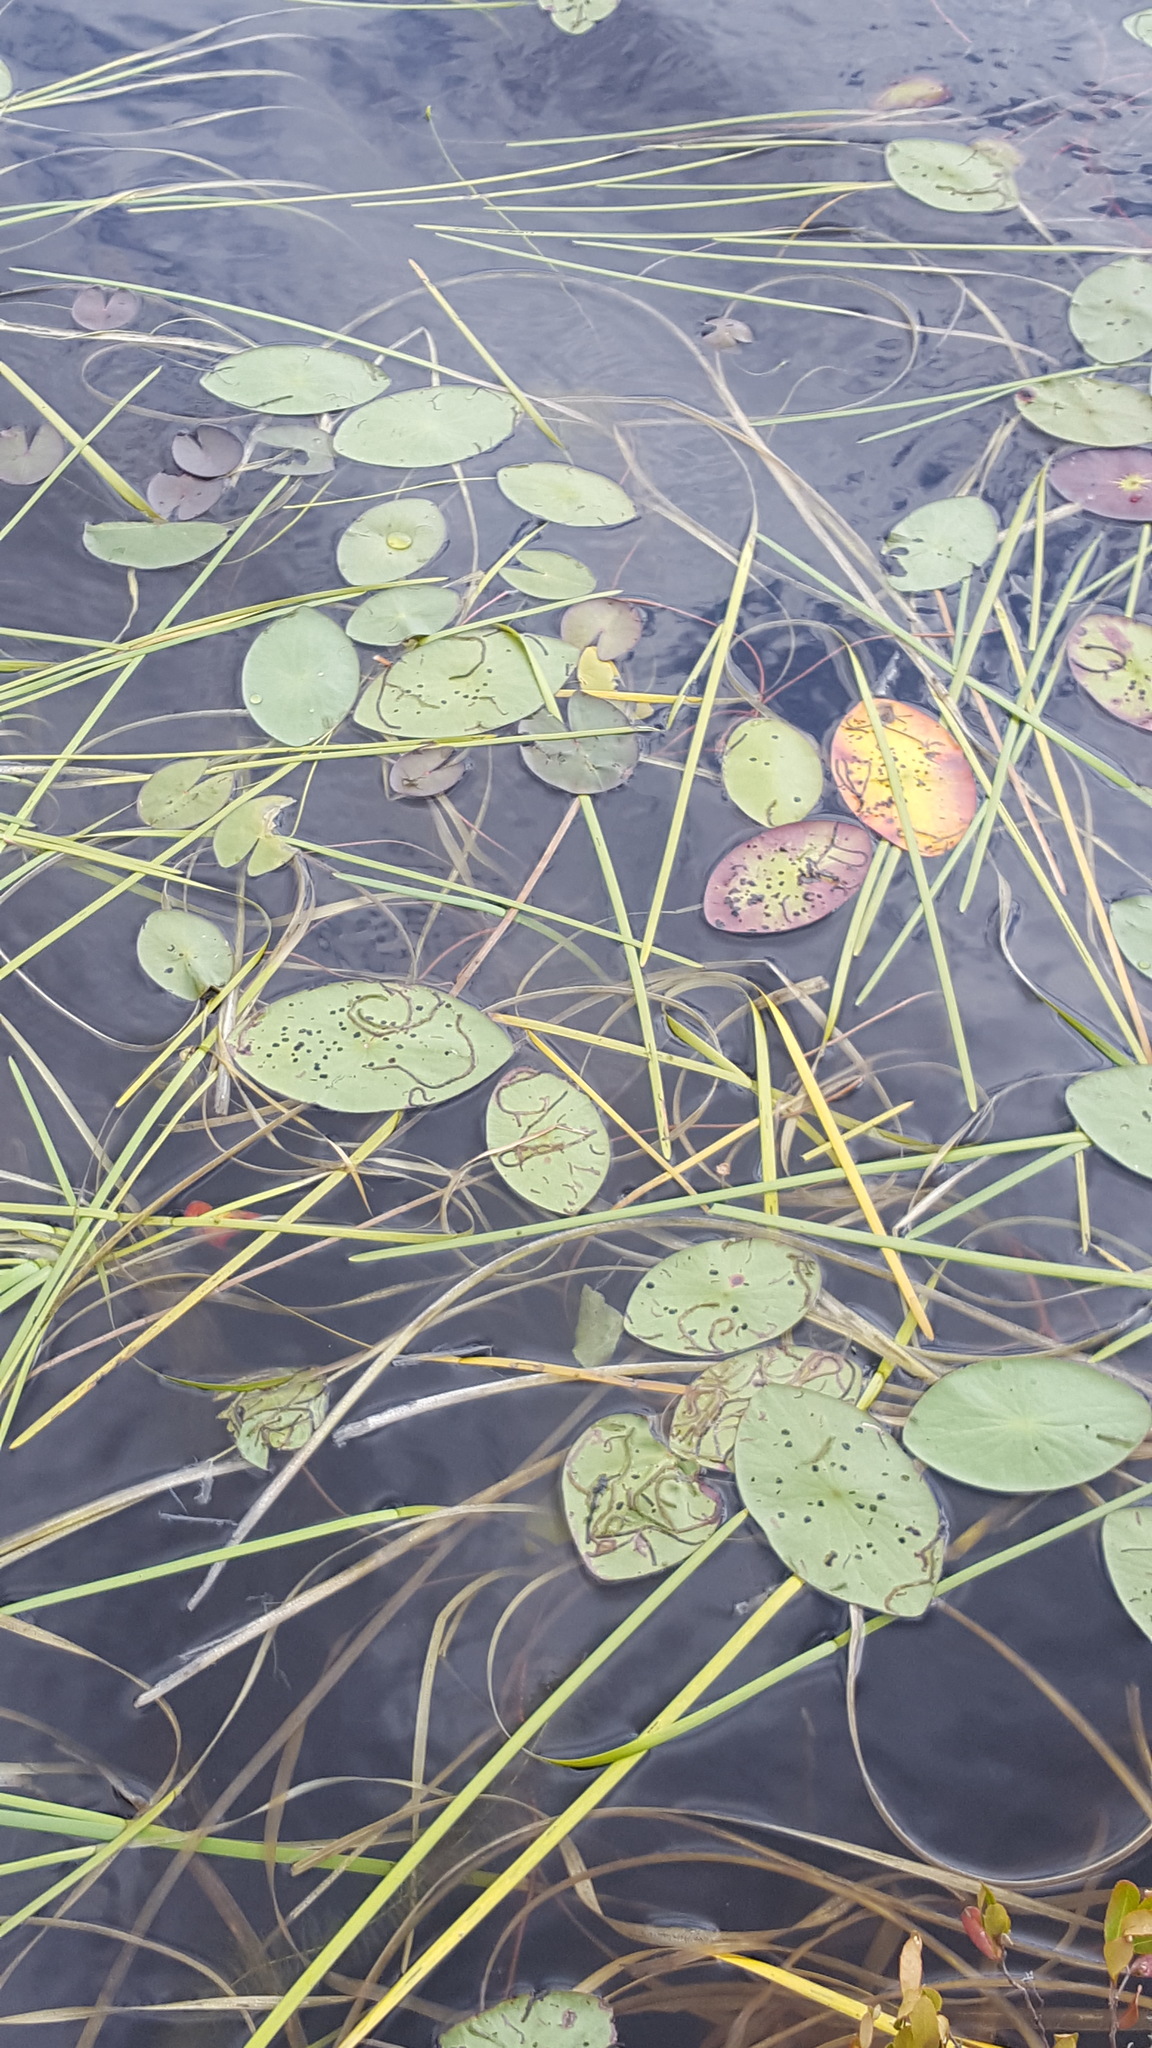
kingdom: Plantae
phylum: Tracheophyta
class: Magnoliopsida
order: Nymphaeales
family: Cabombaceae
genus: Brasenia
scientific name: Brasenia schreberi
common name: Water-shield
